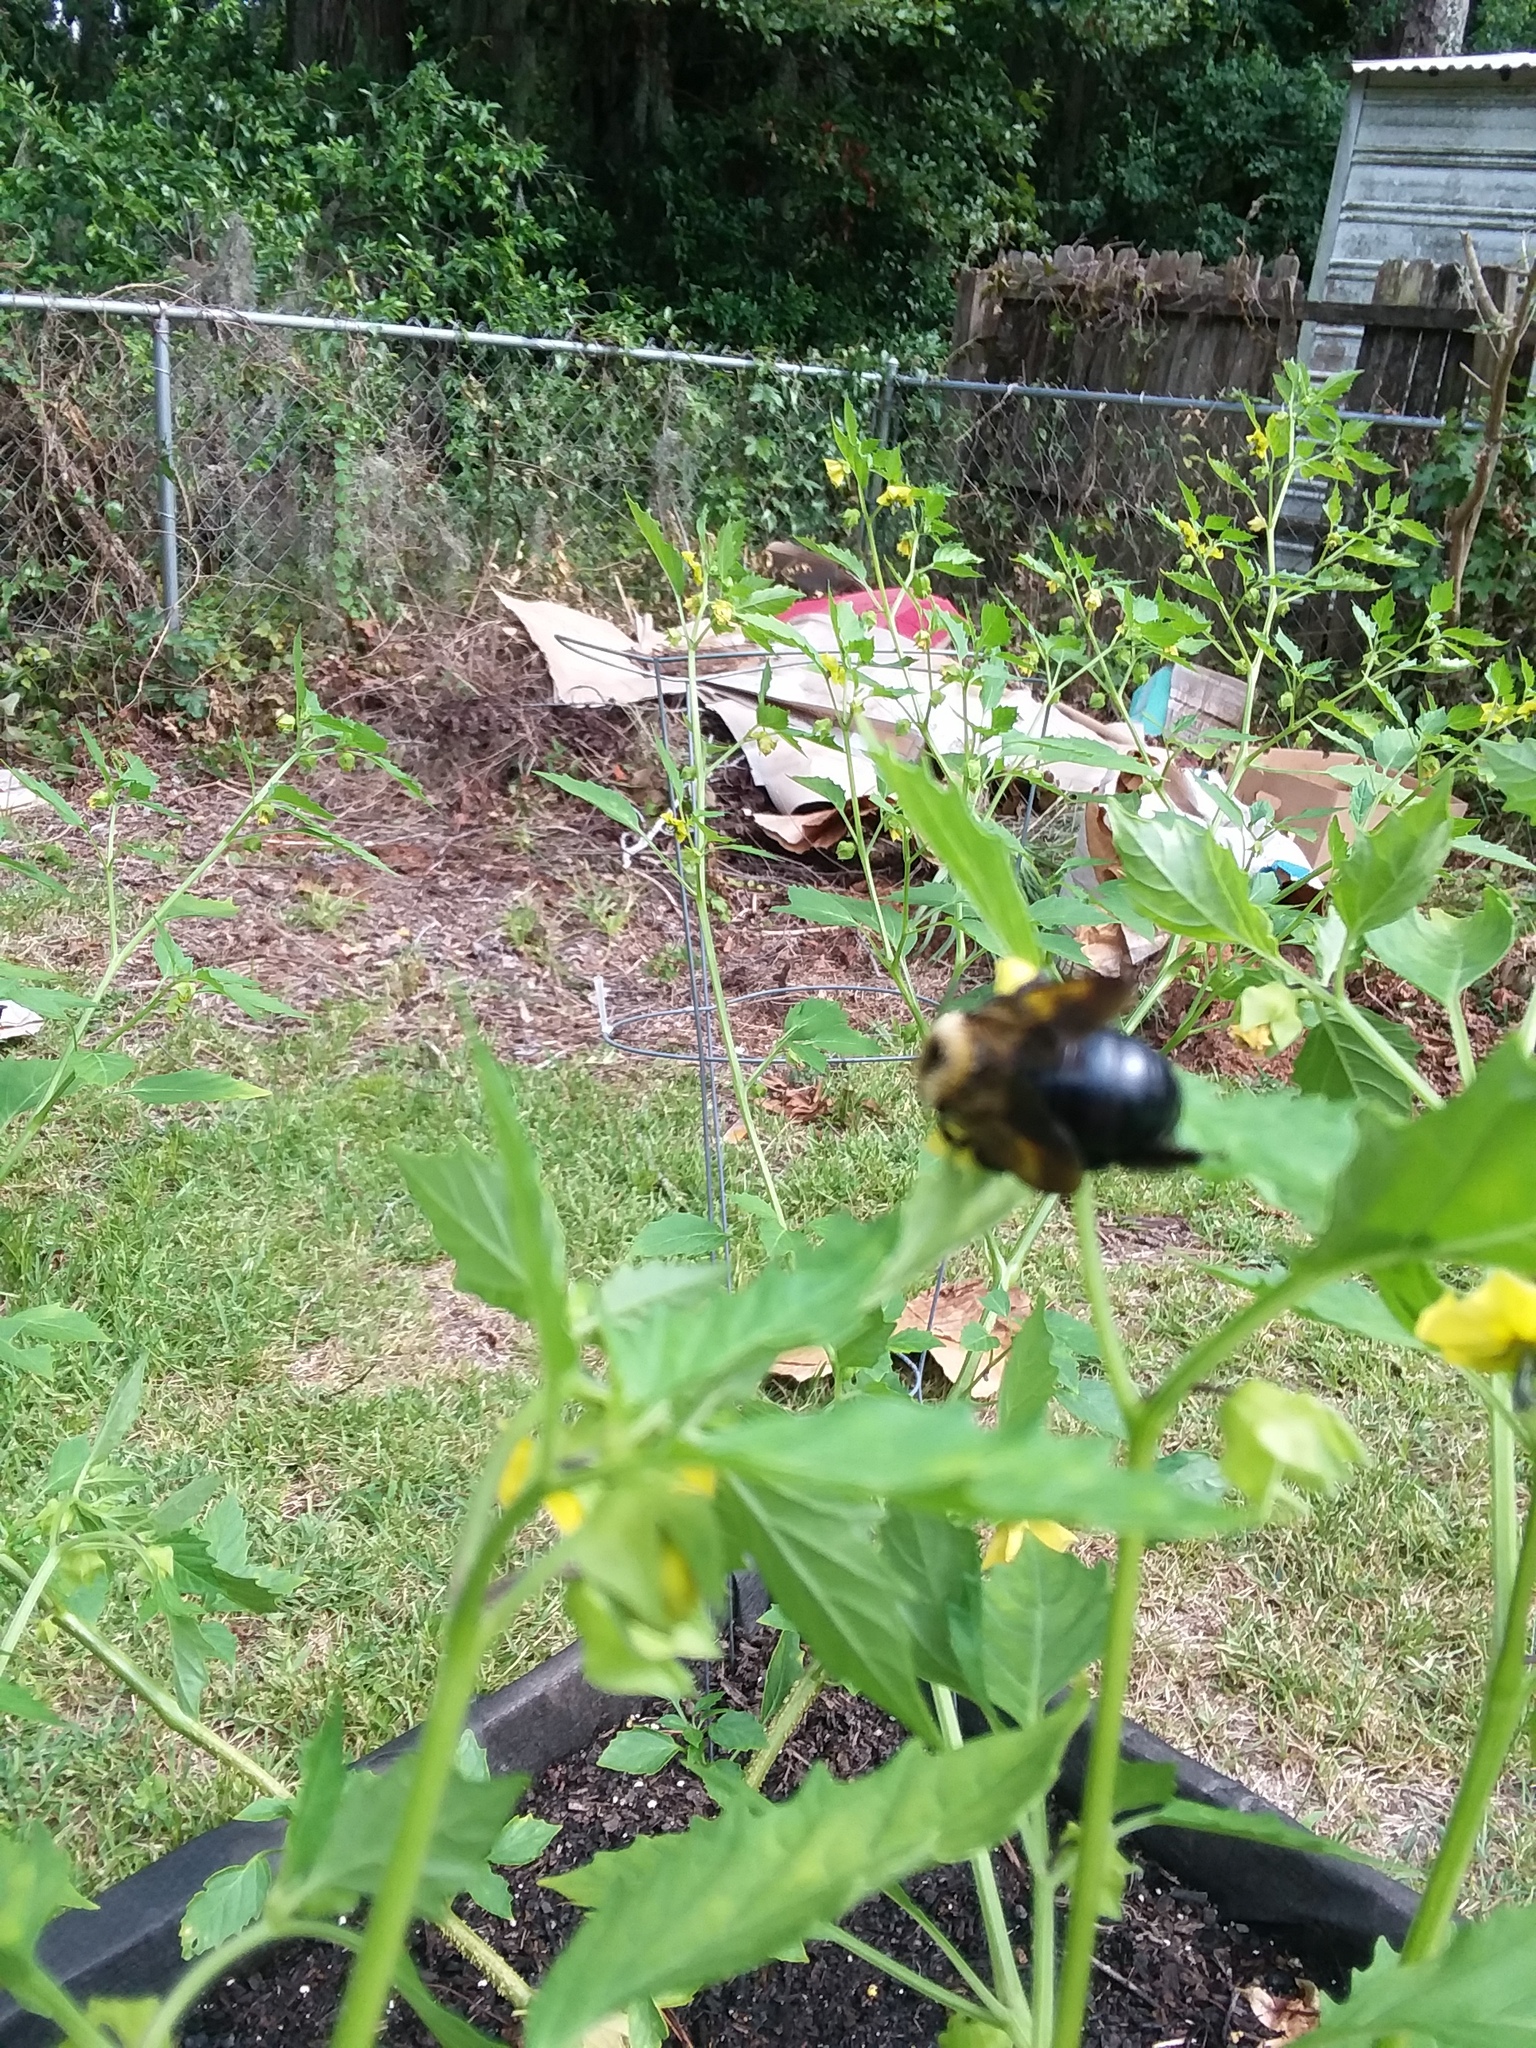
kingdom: Animalia
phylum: Arthropoda
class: Insecta
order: Hymenoptera
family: Apidae
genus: Xylocopa
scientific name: Xylocopa virginica
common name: Carpenter bee
